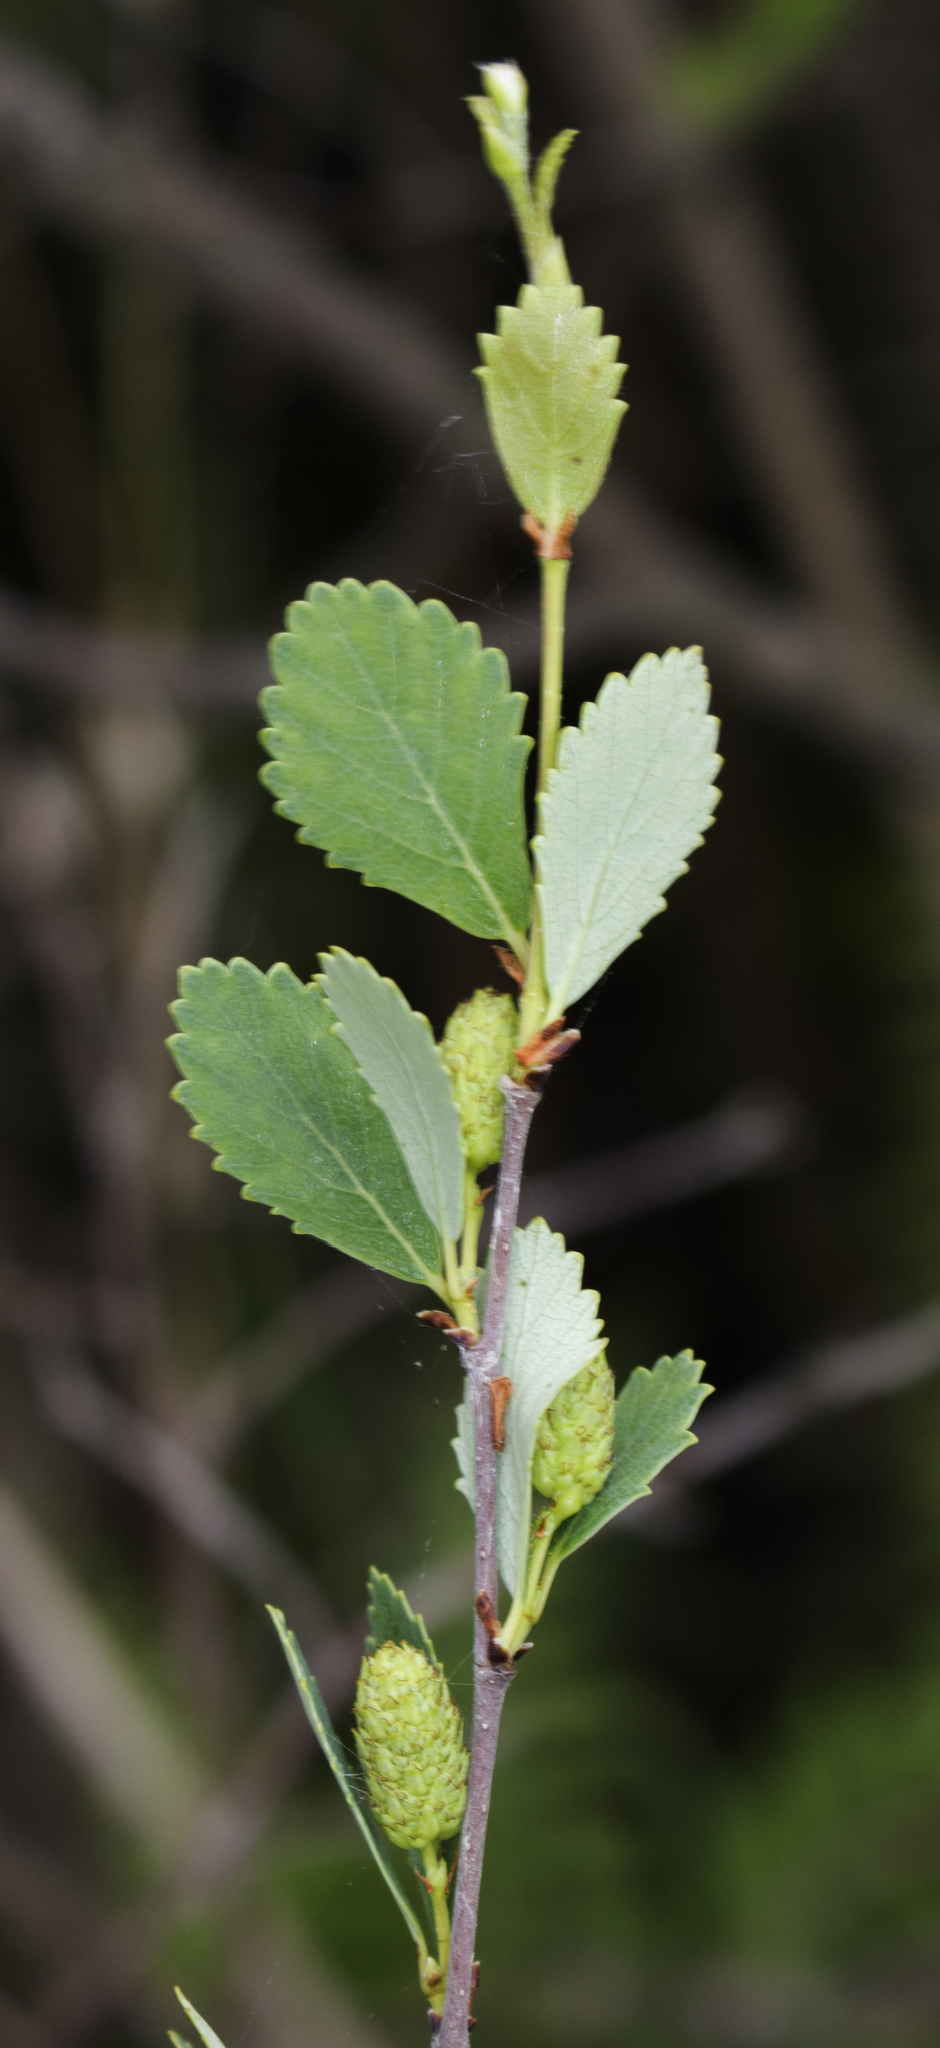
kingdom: Plantae
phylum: Tracheophyta
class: Magnoliopsida
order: Fagales
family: Betulaceae
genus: Betula
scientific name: Betula pumila
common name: Bog birch
